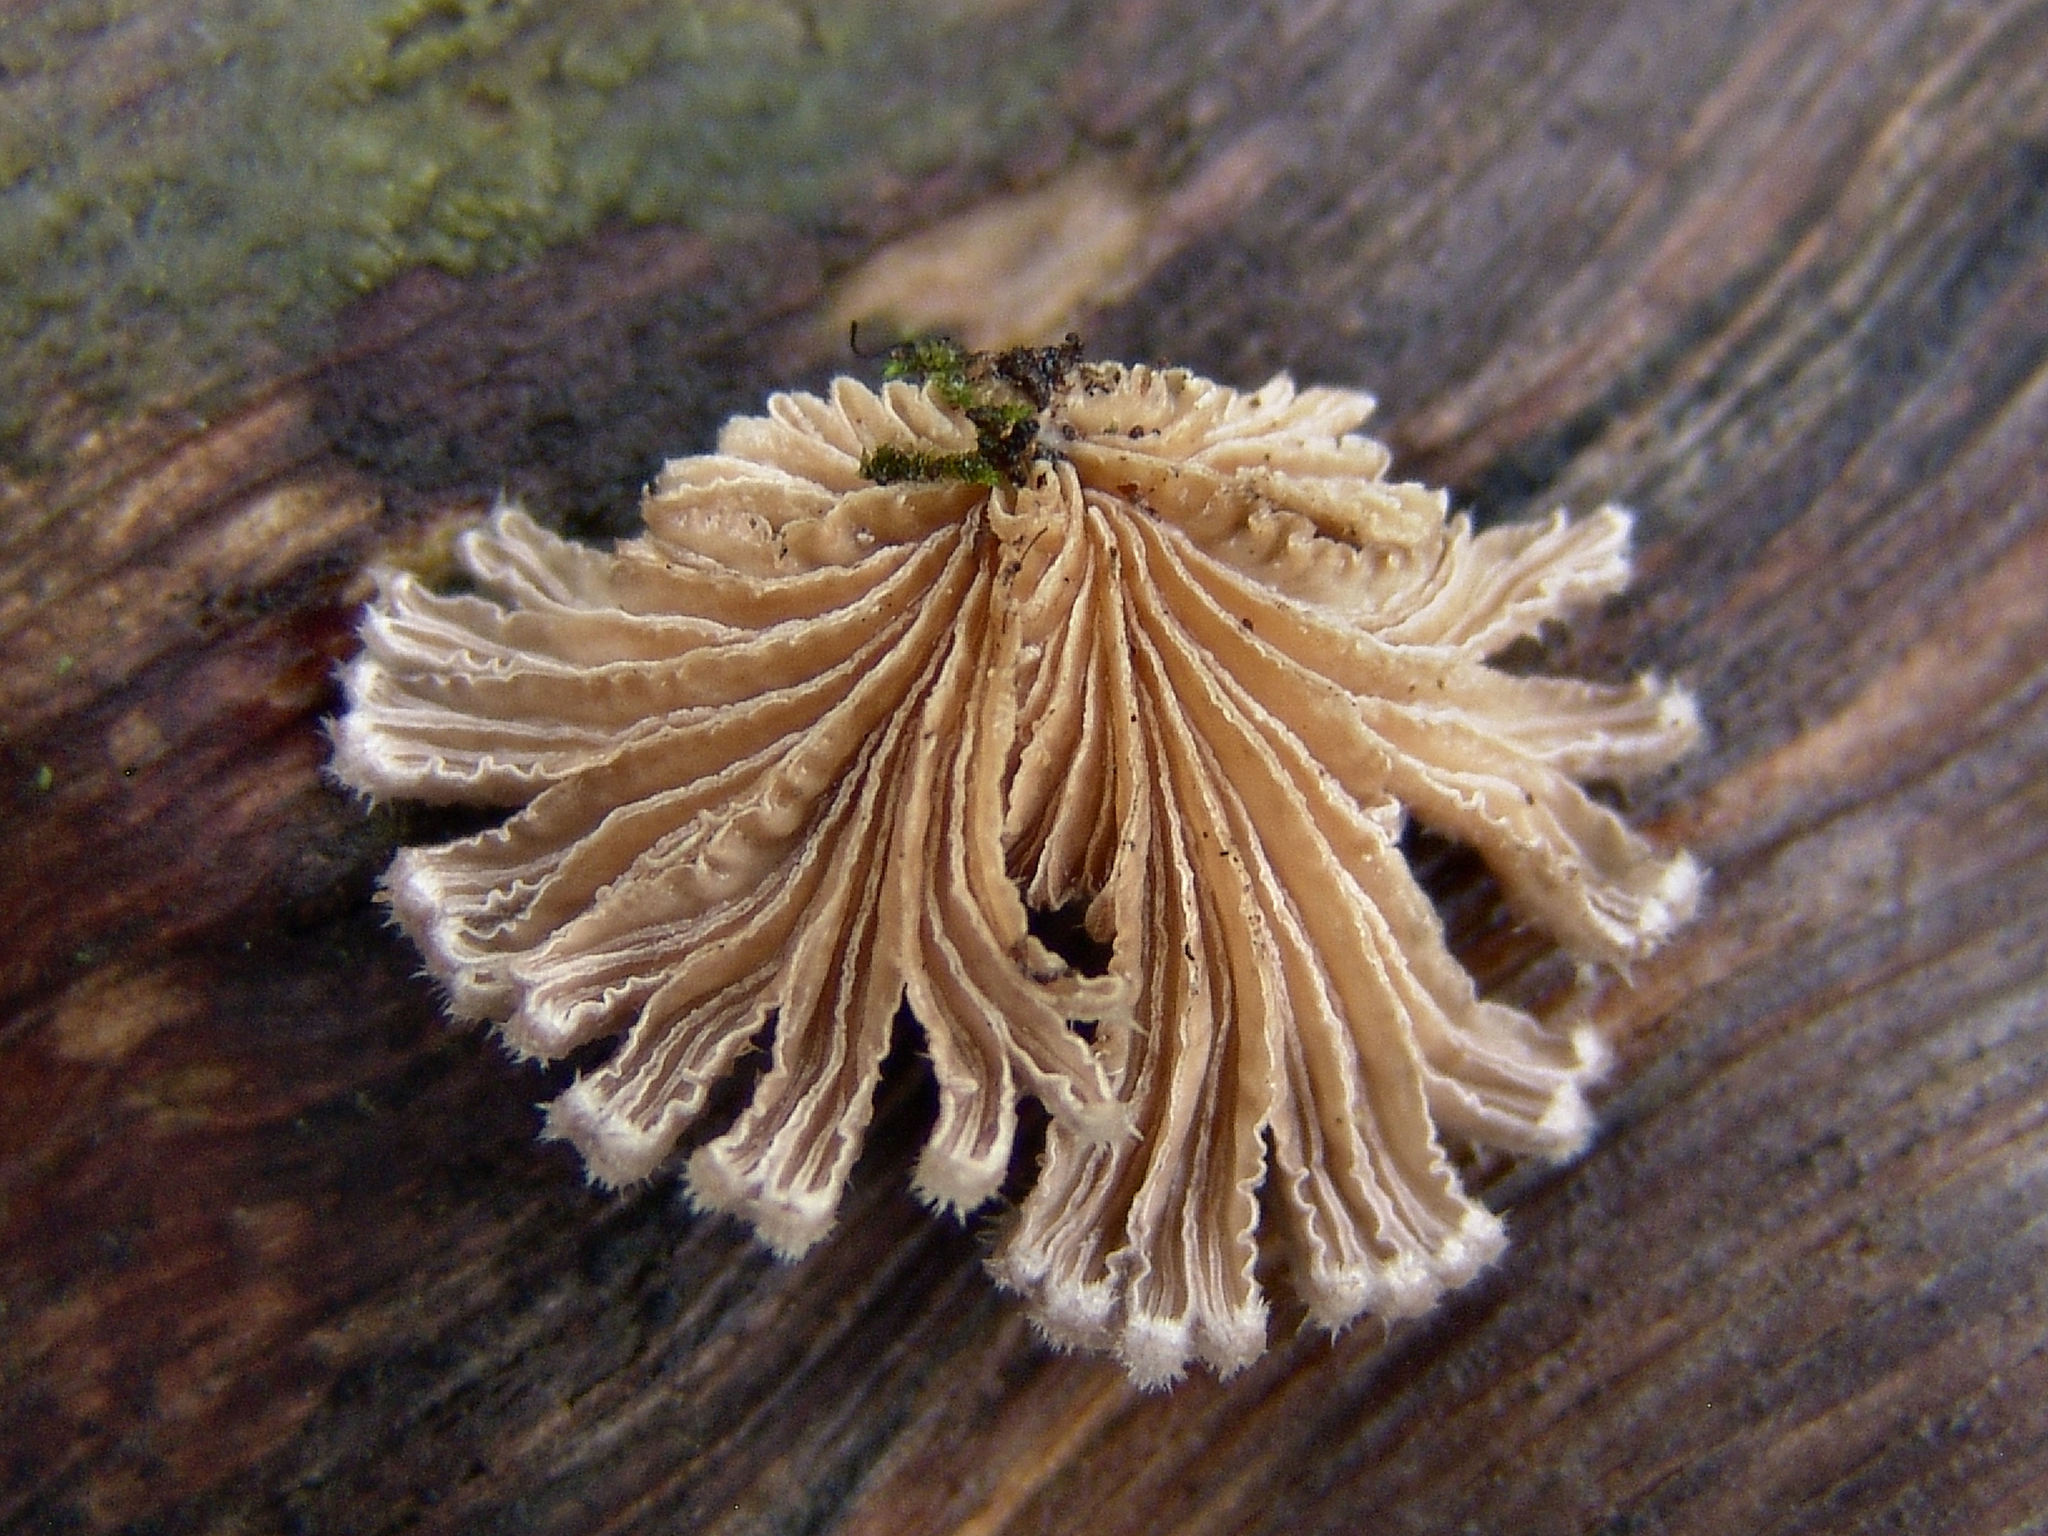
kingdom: Fungi
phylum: Basidiomycota
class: Agaricomycetes
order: Agaricales
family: Schizophyllaceae
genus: Schizophyllum
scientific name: Schizophyllum commune
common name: Common porecrust
